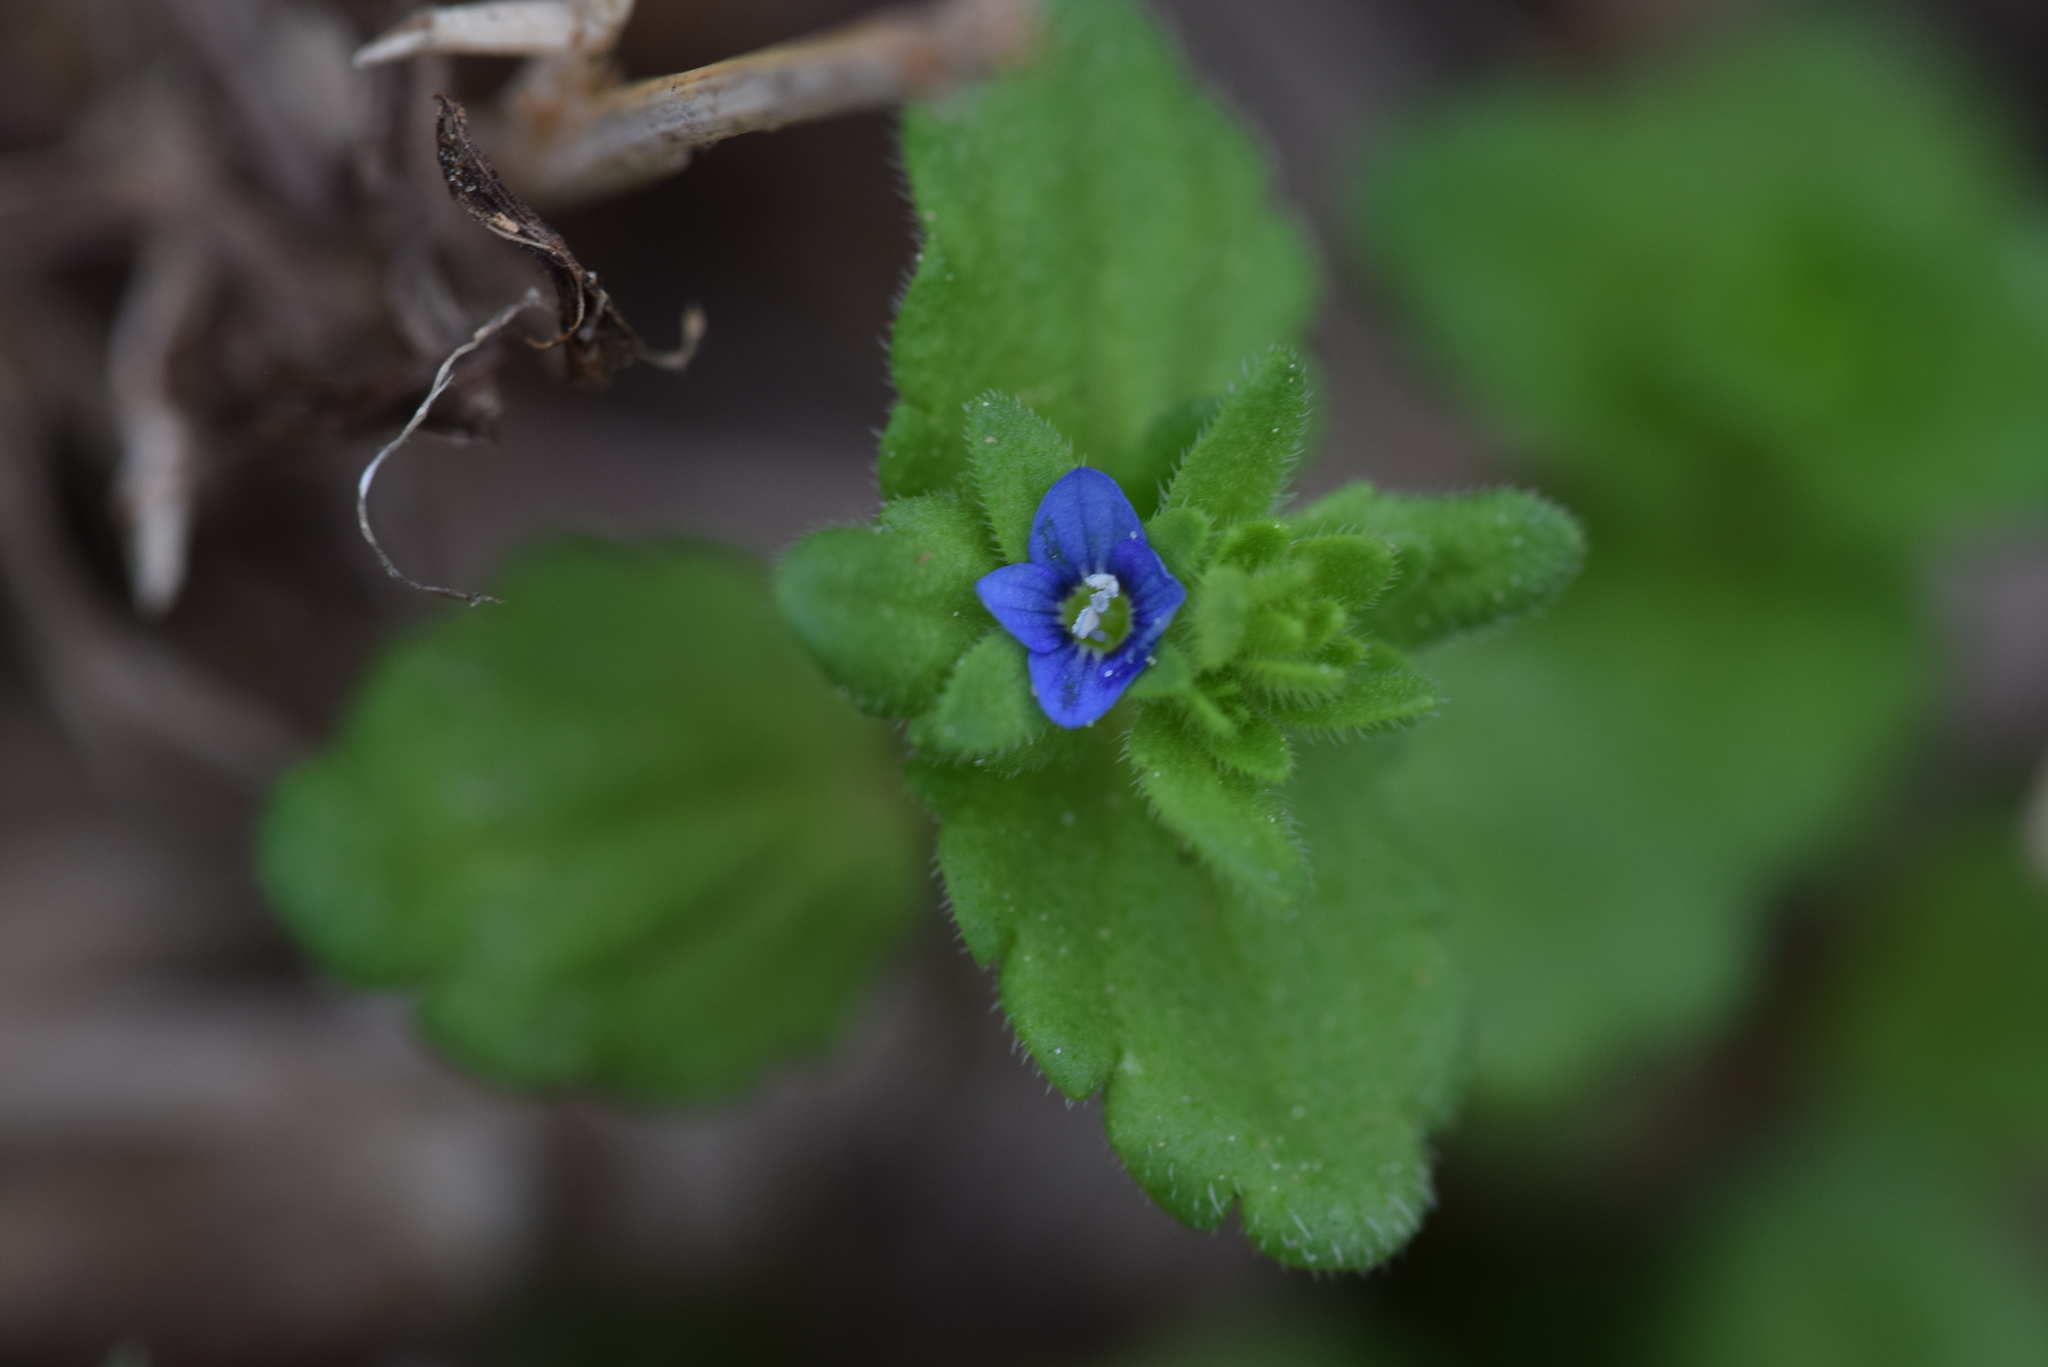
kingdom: Plantae
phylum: Tracheophyta
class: Magnoliopsida
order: Lamiales
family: Plantaginaceae
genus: Veronica
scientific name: Veronica arvensis
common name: Corn speedwell
